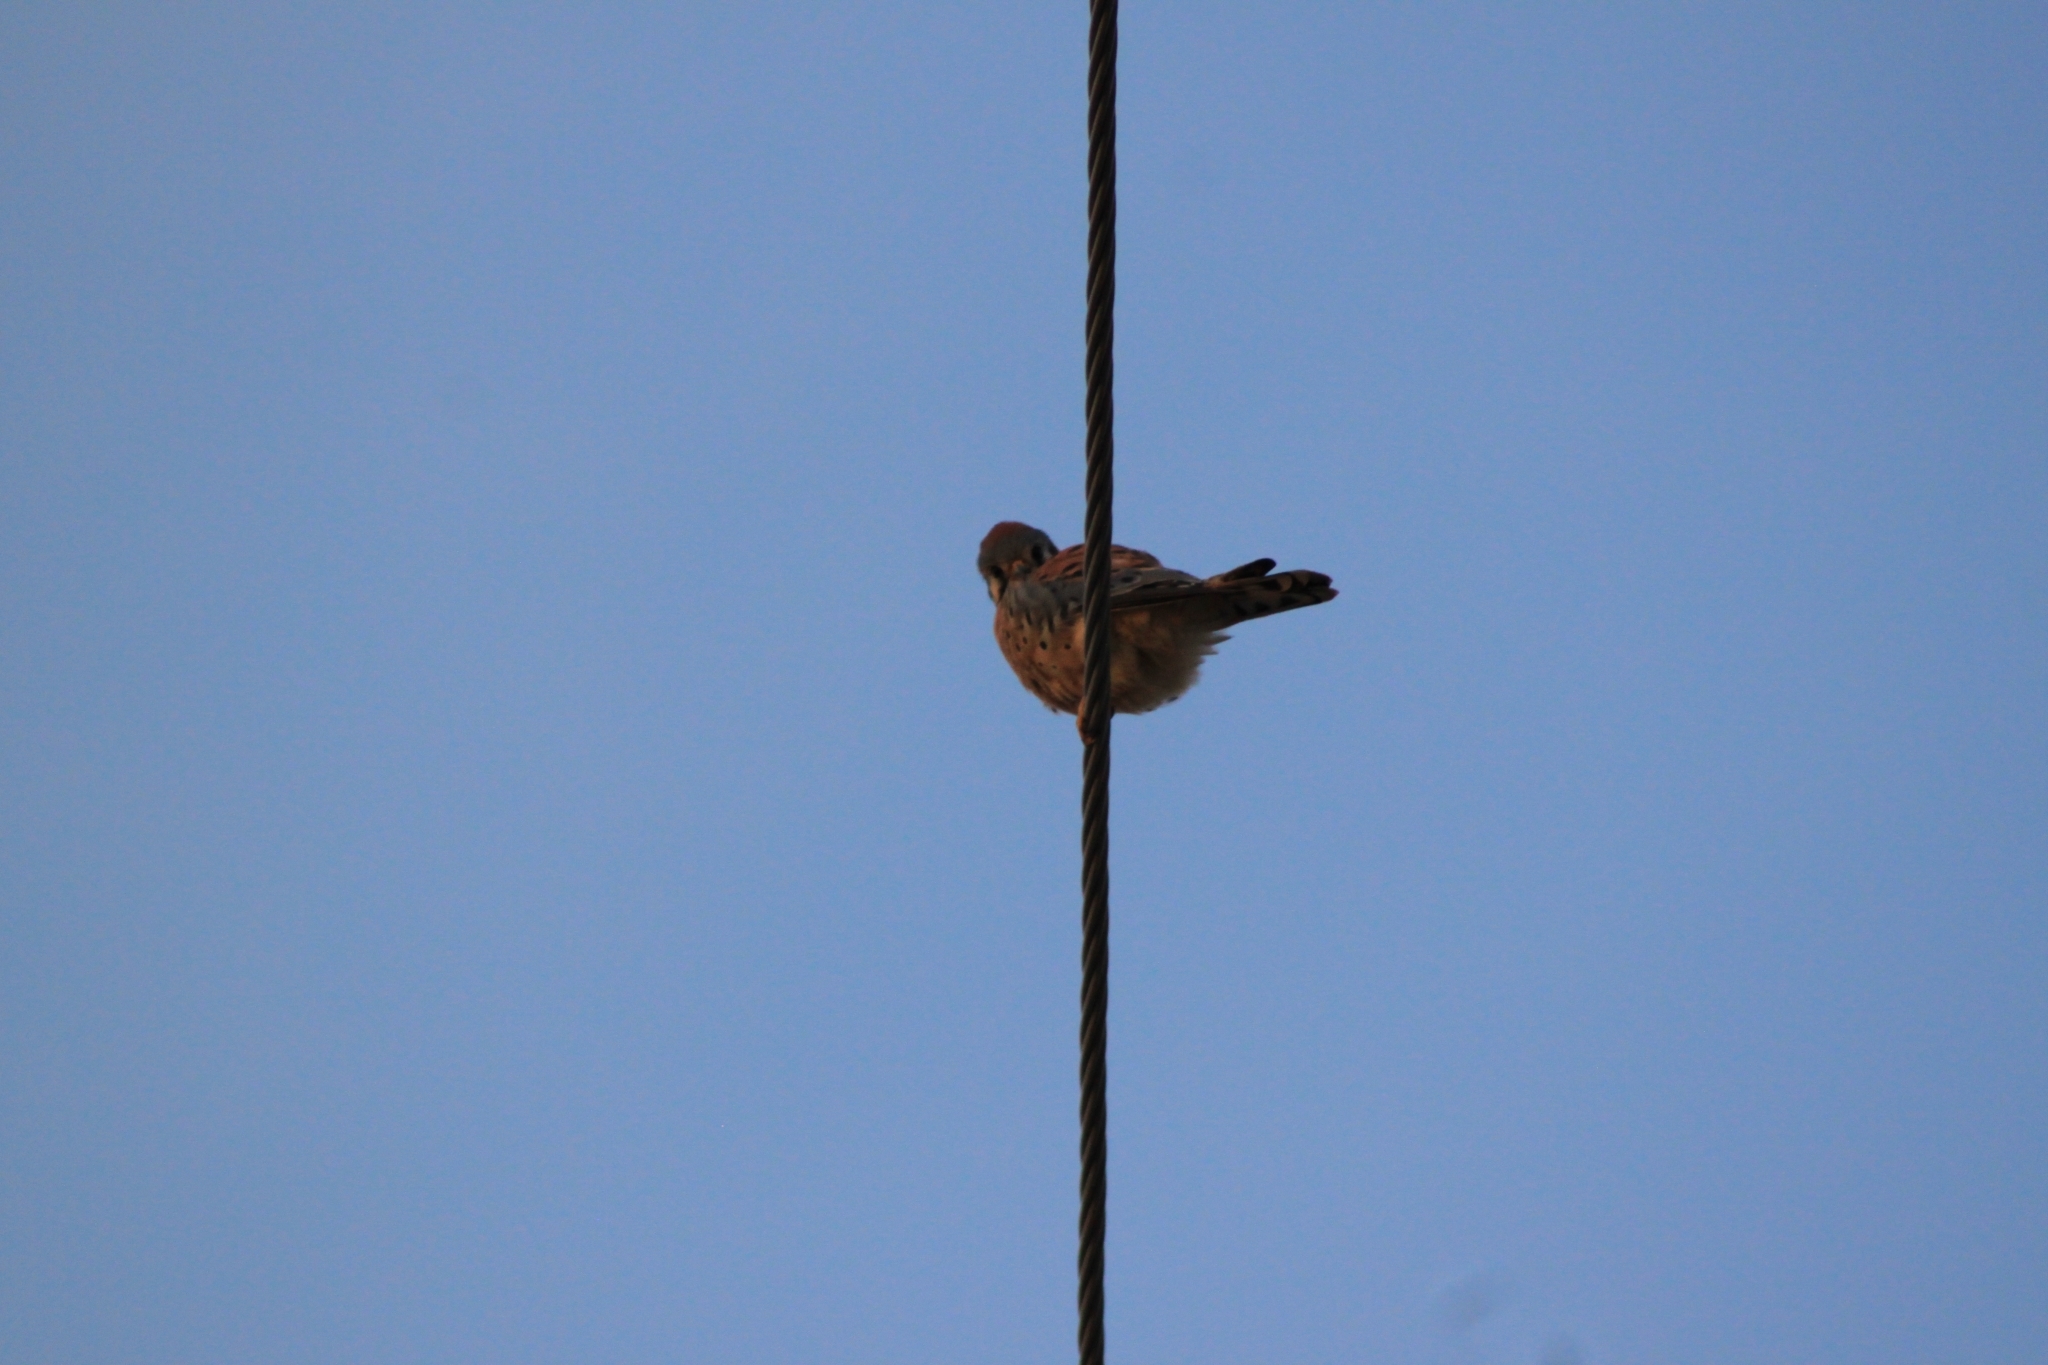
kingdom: Animalia
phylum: Chordata
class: Aves
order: Falconiformes
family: Falconidae
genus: Falco
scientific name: Falco sparverius
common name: American kestrel
